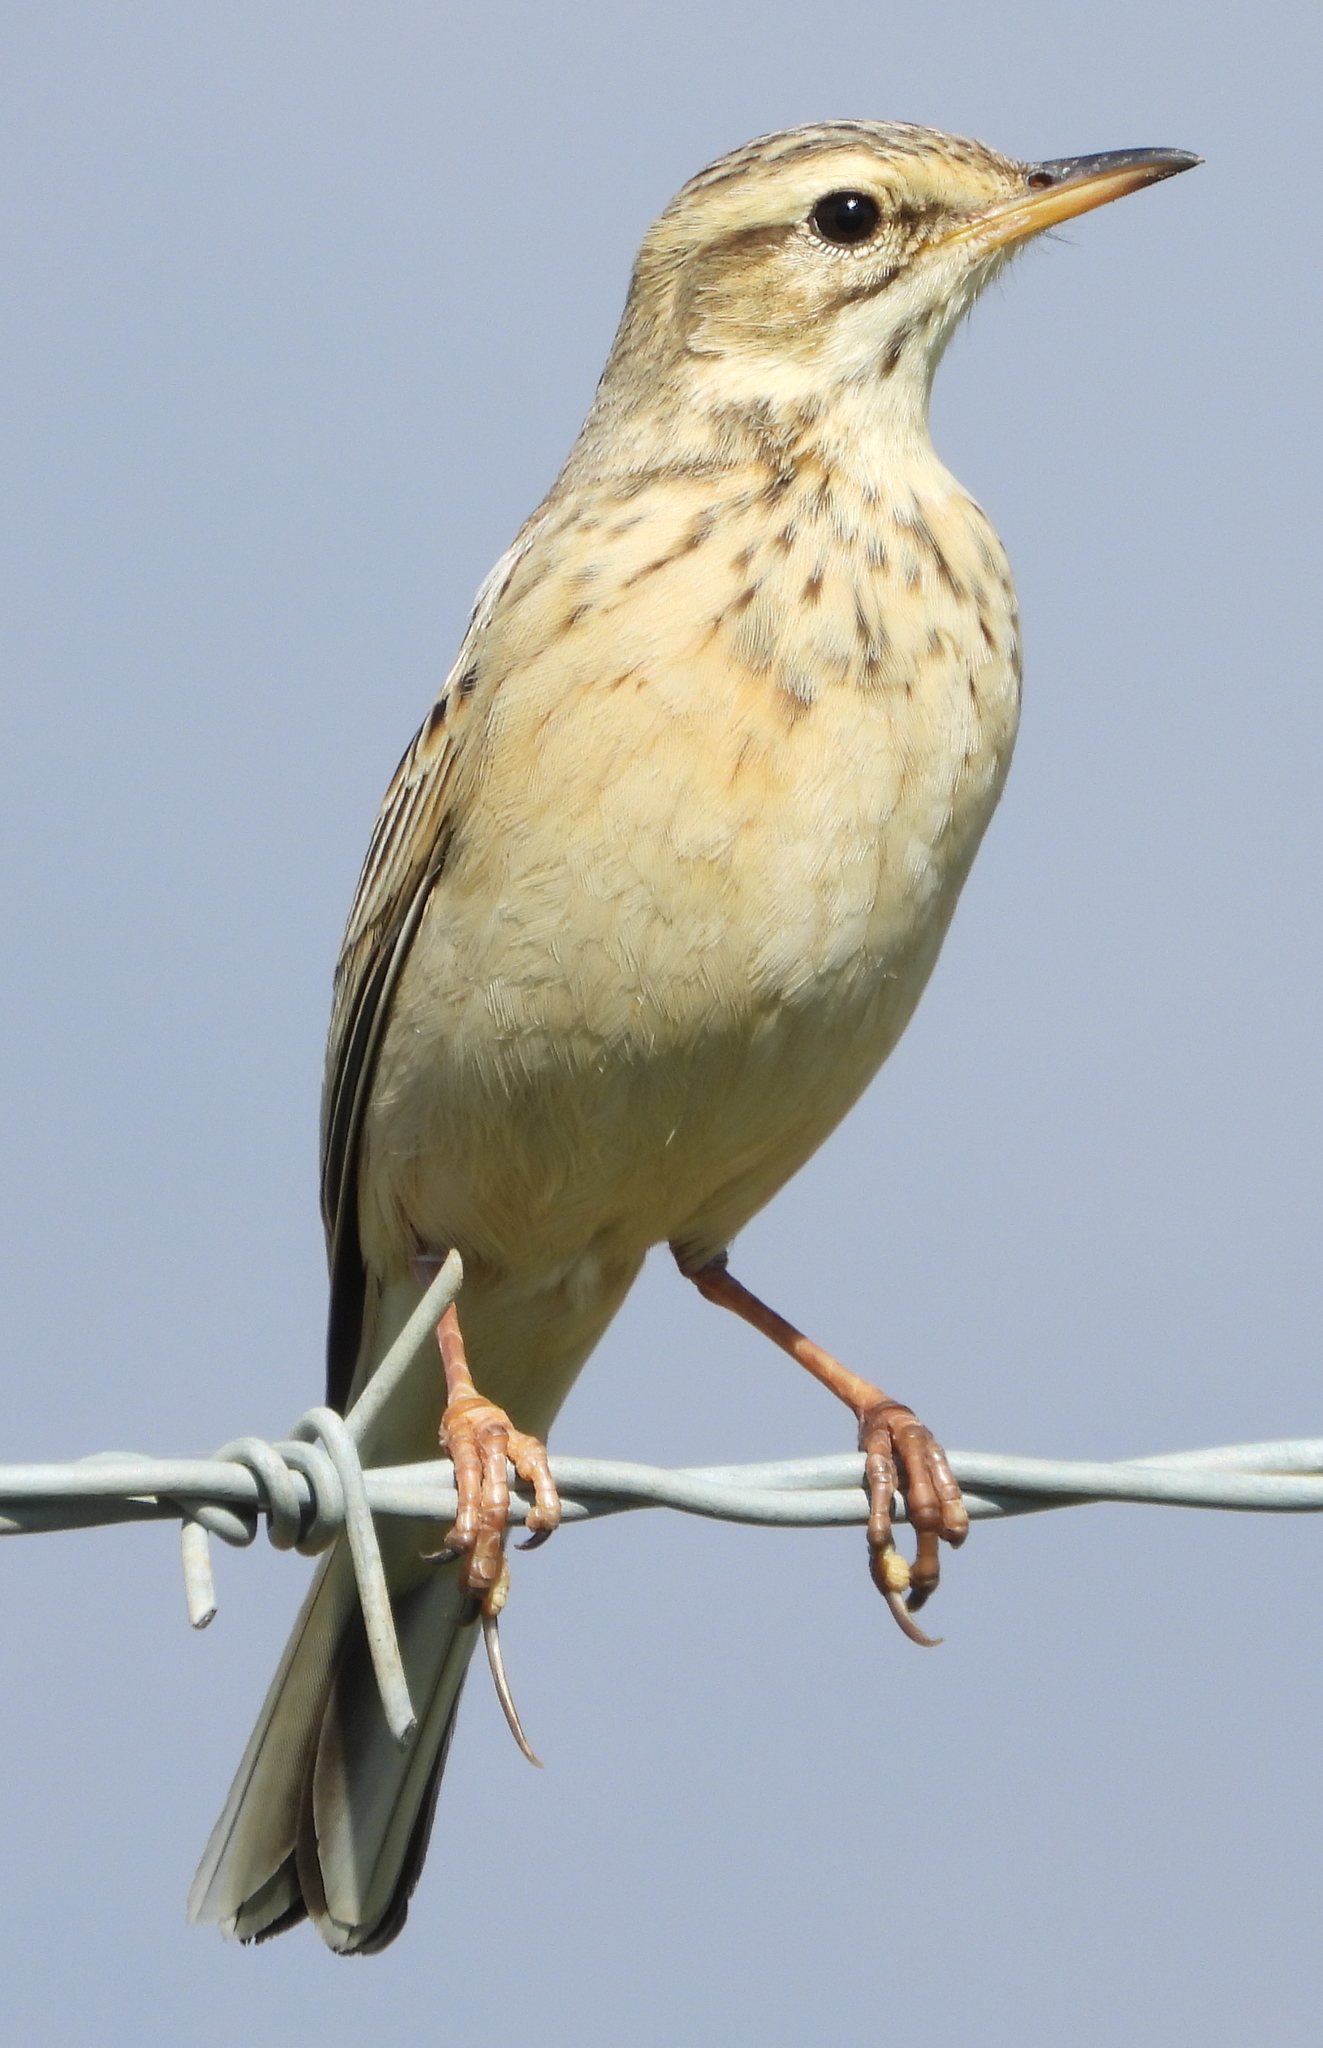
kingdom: Animalia
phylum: Chordata
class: Aves
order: Passeriformes
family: Motacillidae
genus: Anthus
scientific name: Anthus cinnamomeus
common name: African pipit
